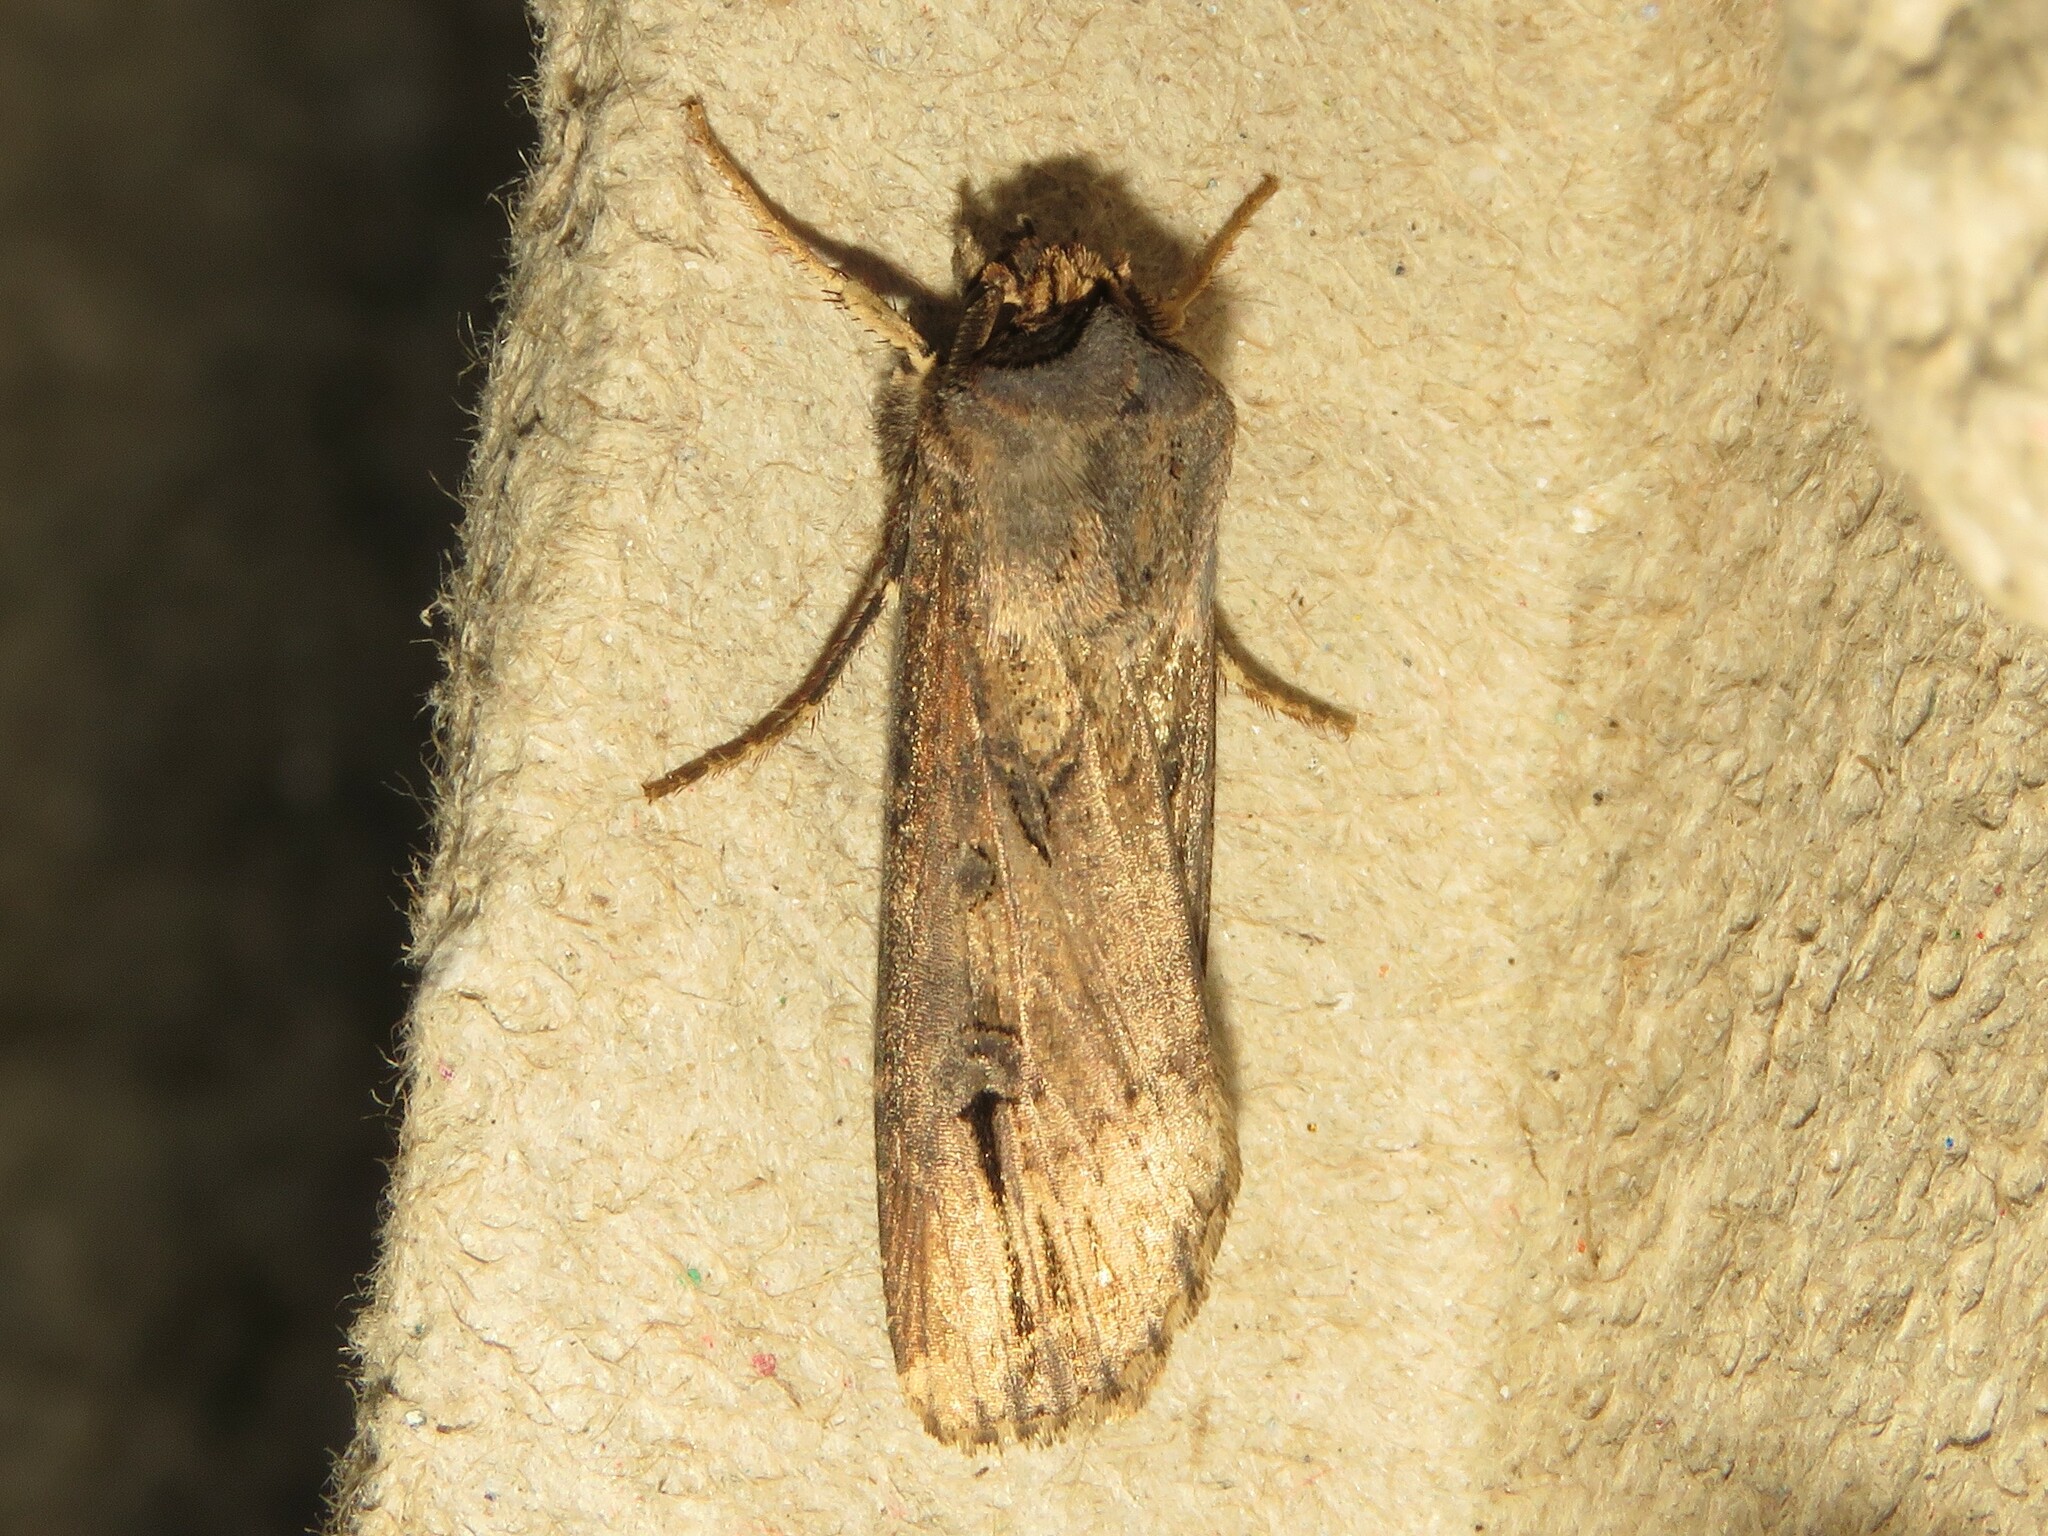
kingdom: Animalia
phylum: Arthropoda
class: Insecta
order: Lepidoptera
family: Noctuidae
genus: Agrotis
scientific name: Agrotis ipsilon
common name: Dark sword-grass
